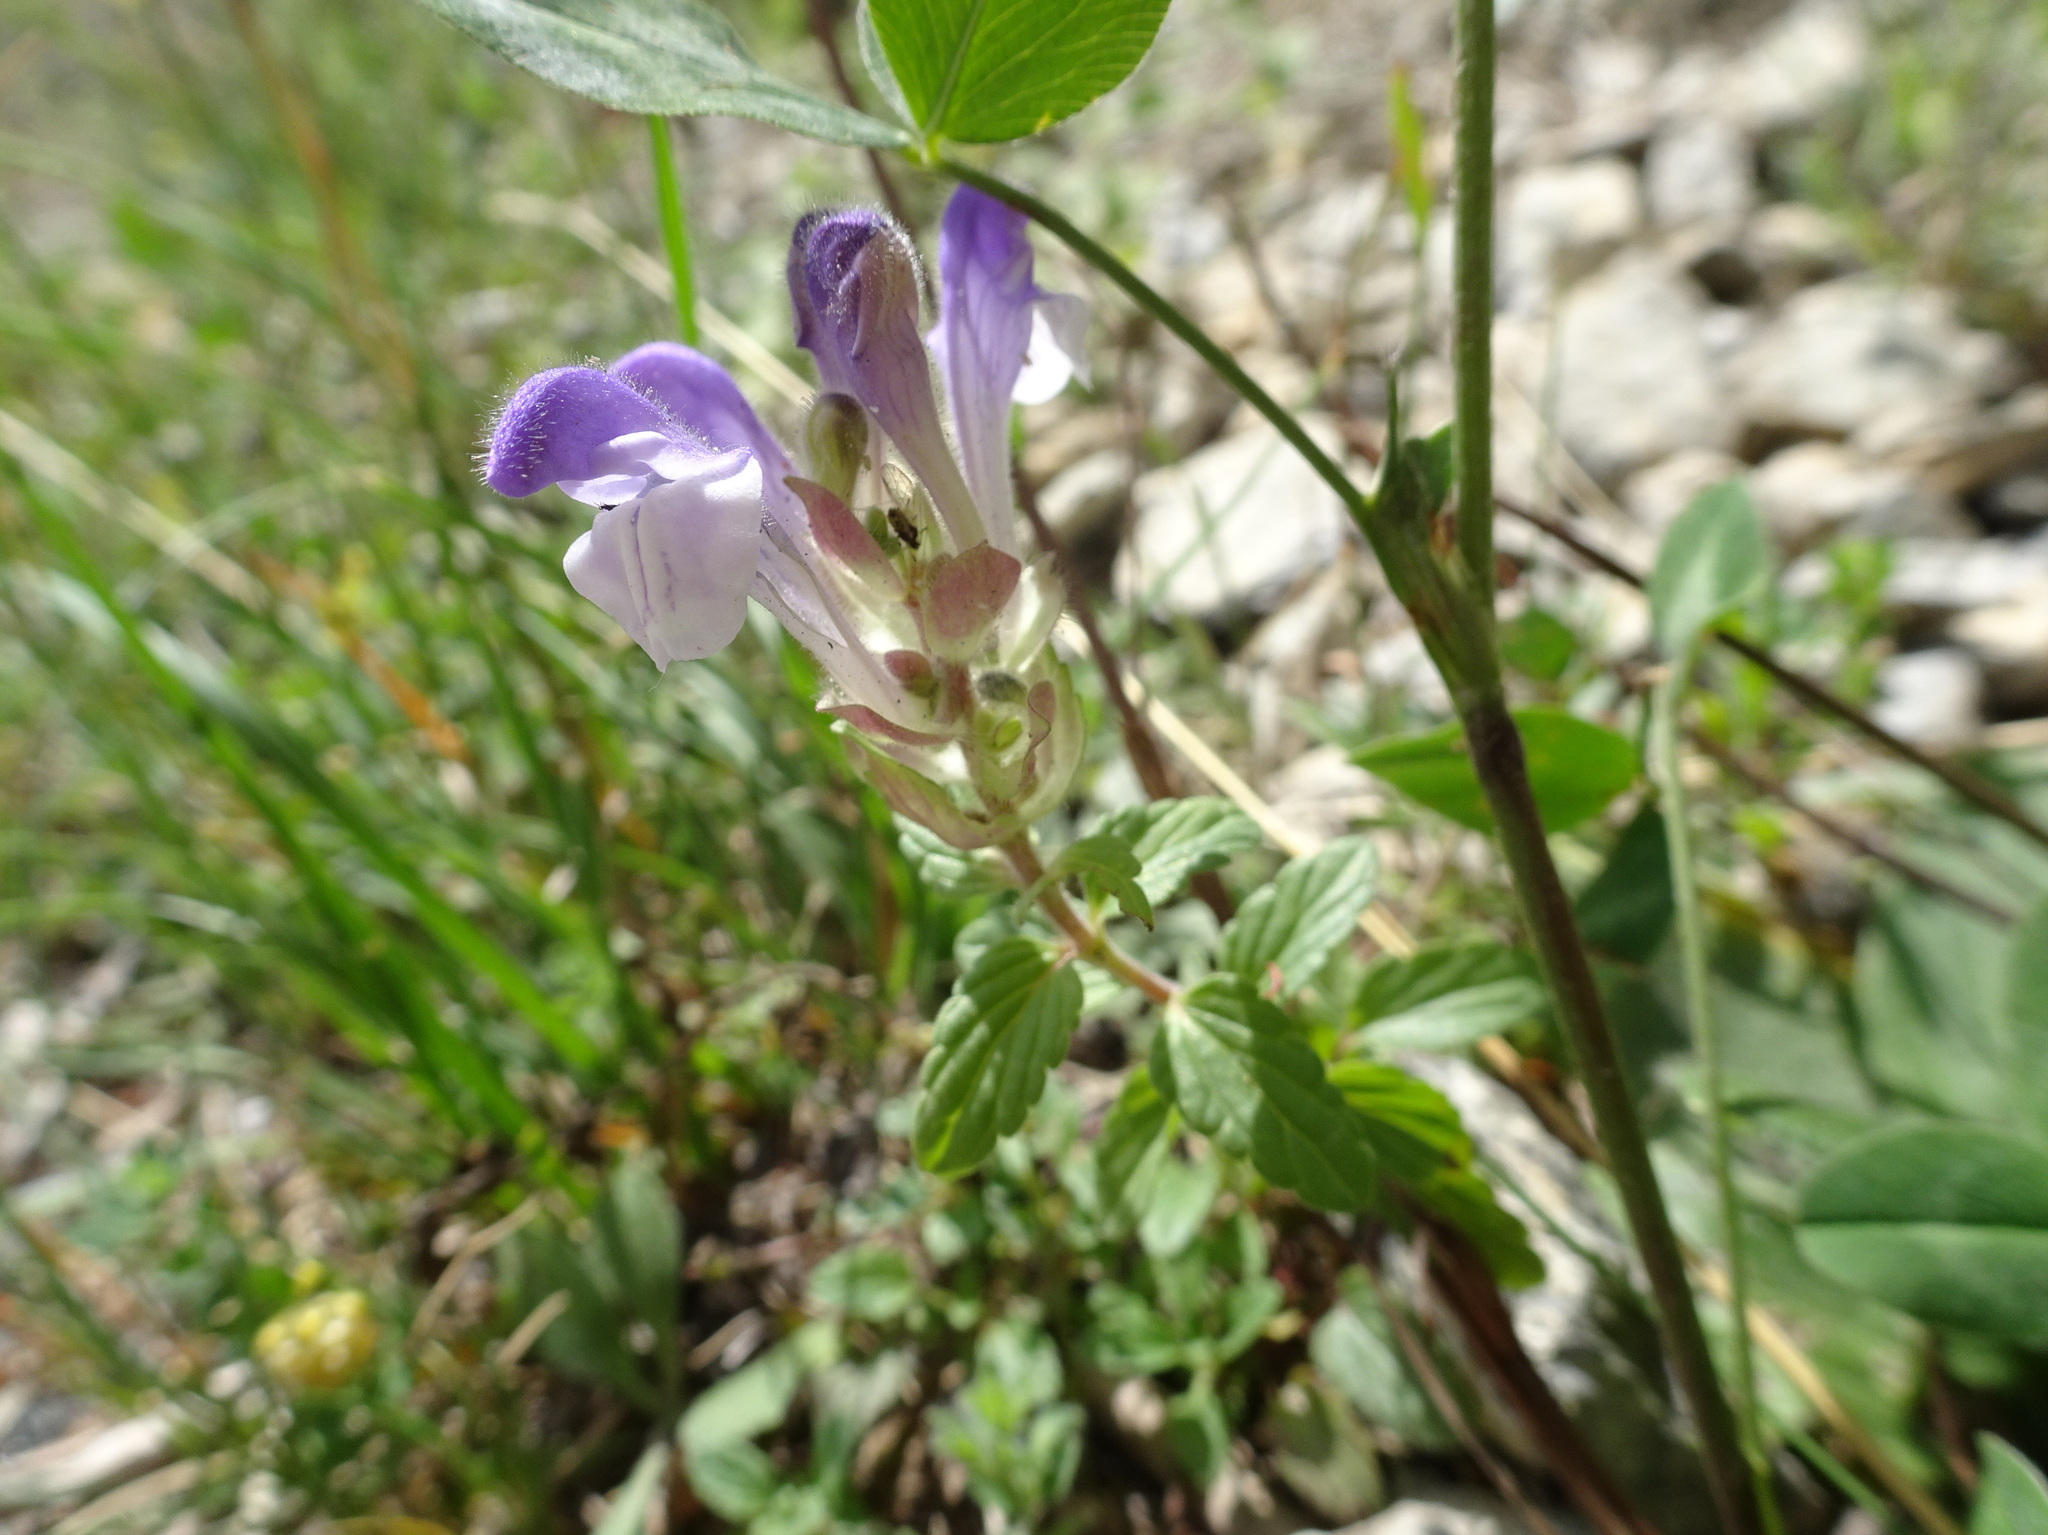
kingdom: Plantae
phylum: Tracheophyta
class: Magnoliopsida
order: Lamiales
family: Lamiaceae
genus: Scutellaria
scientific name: Scutellaria alpina
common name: Alpine scullcap
